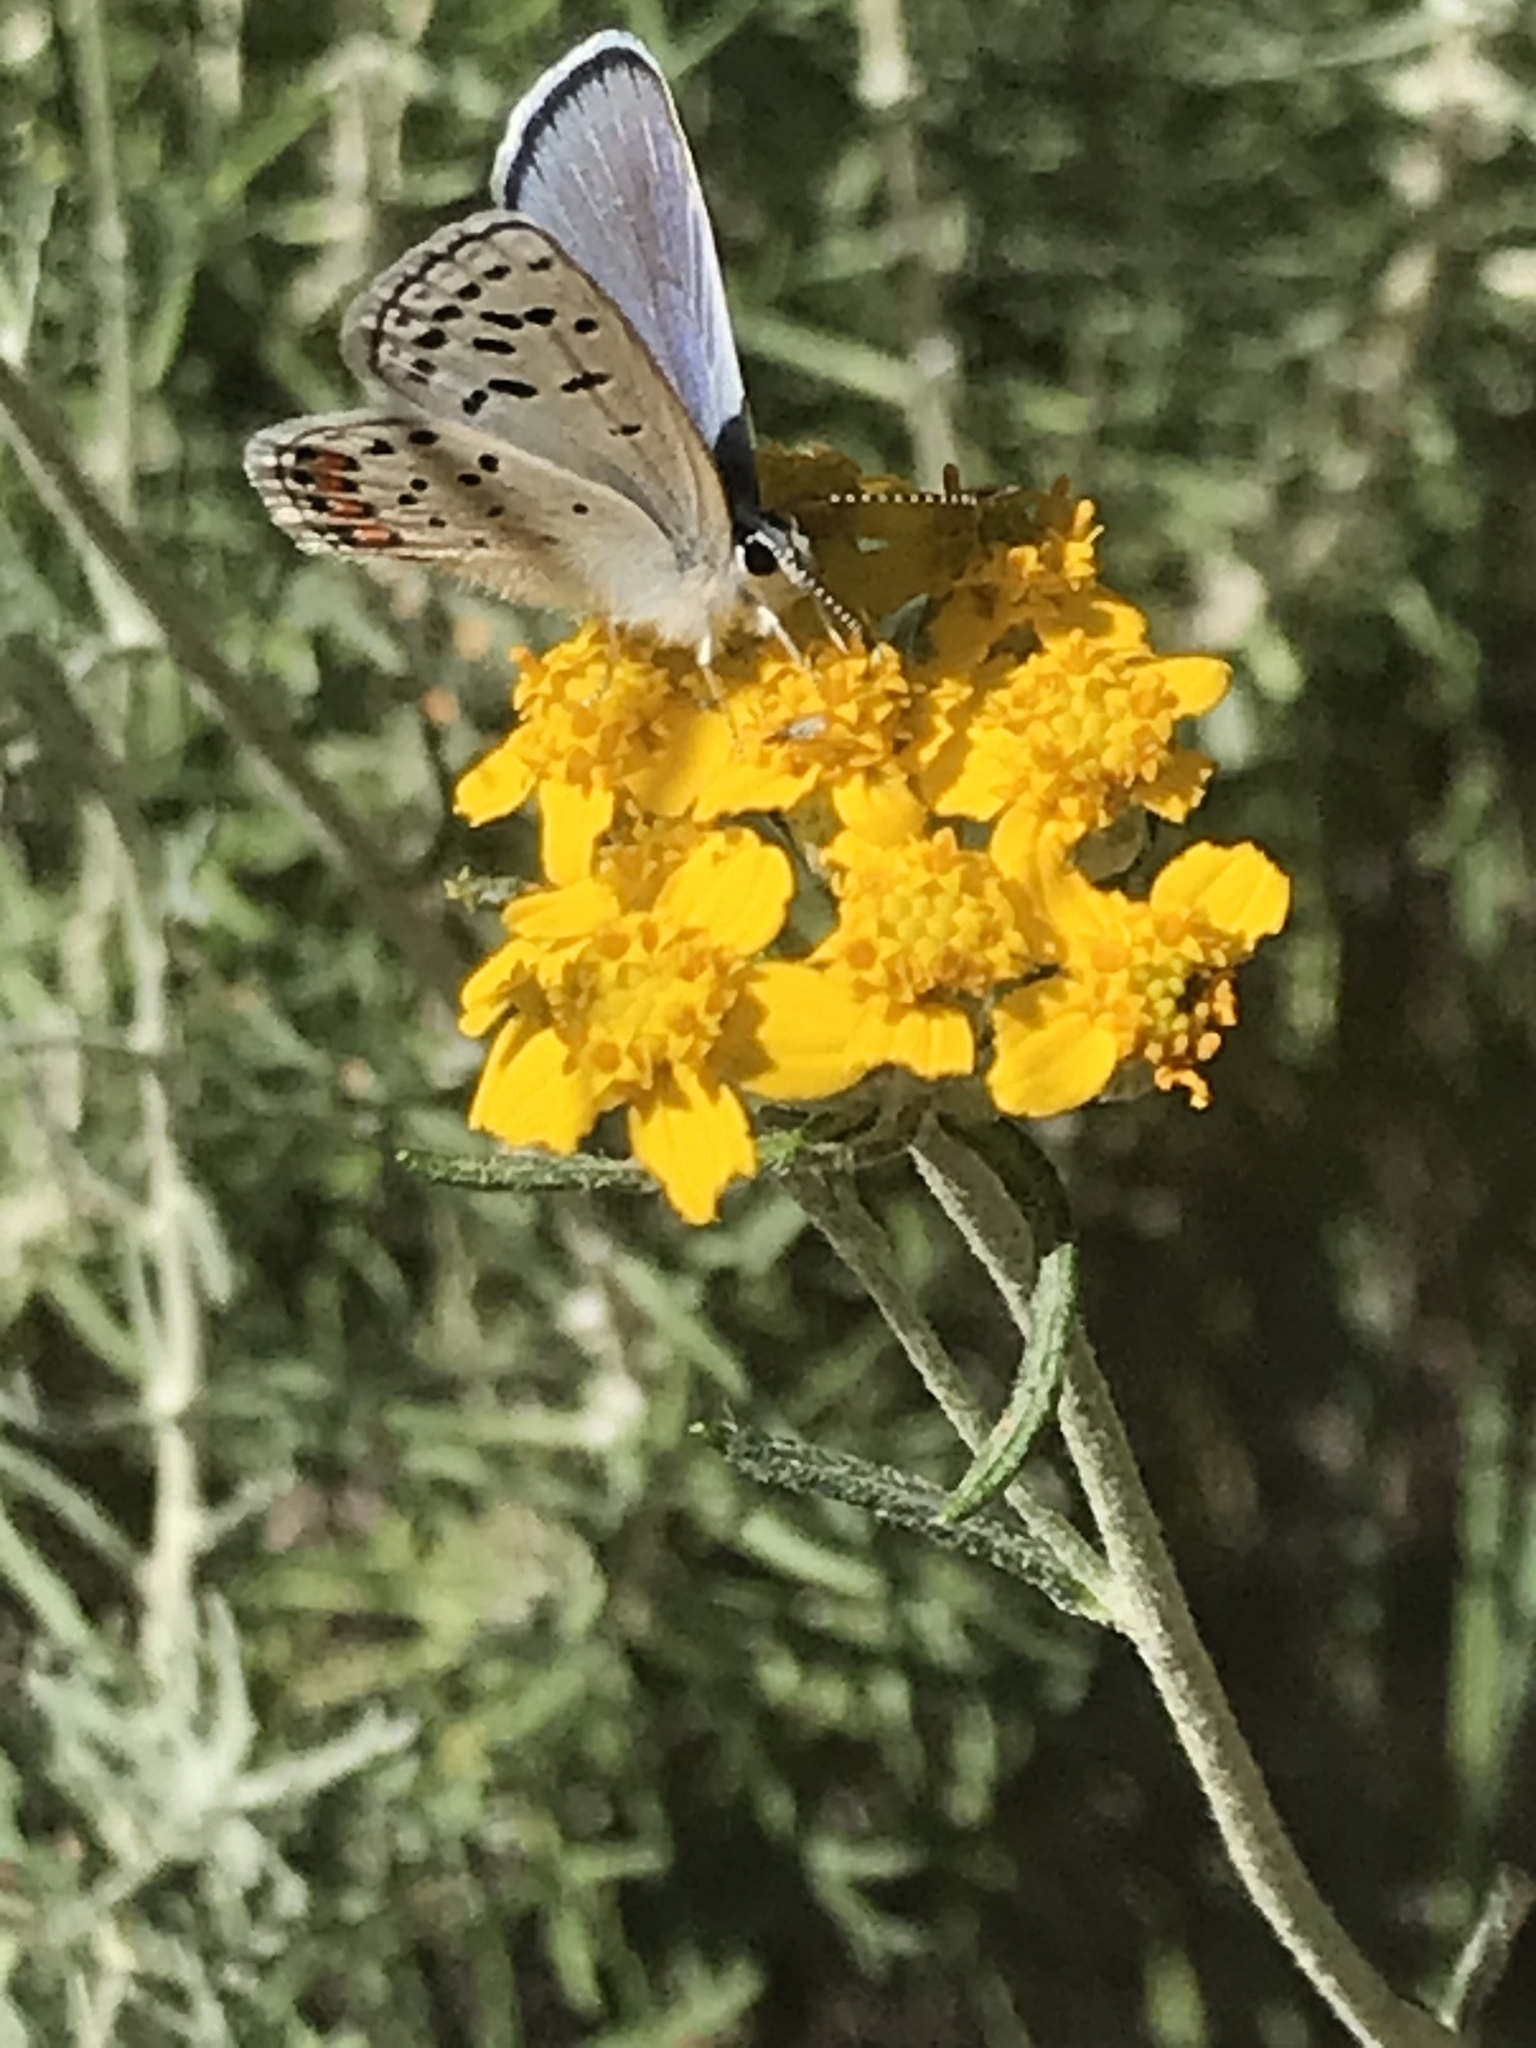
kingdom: Animalia
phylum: Arthropoda
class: Insecta
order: Lepidoptera
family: Lycaenidae
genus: Icaricia
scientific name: Icaricia acmon
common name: Acmon blue
